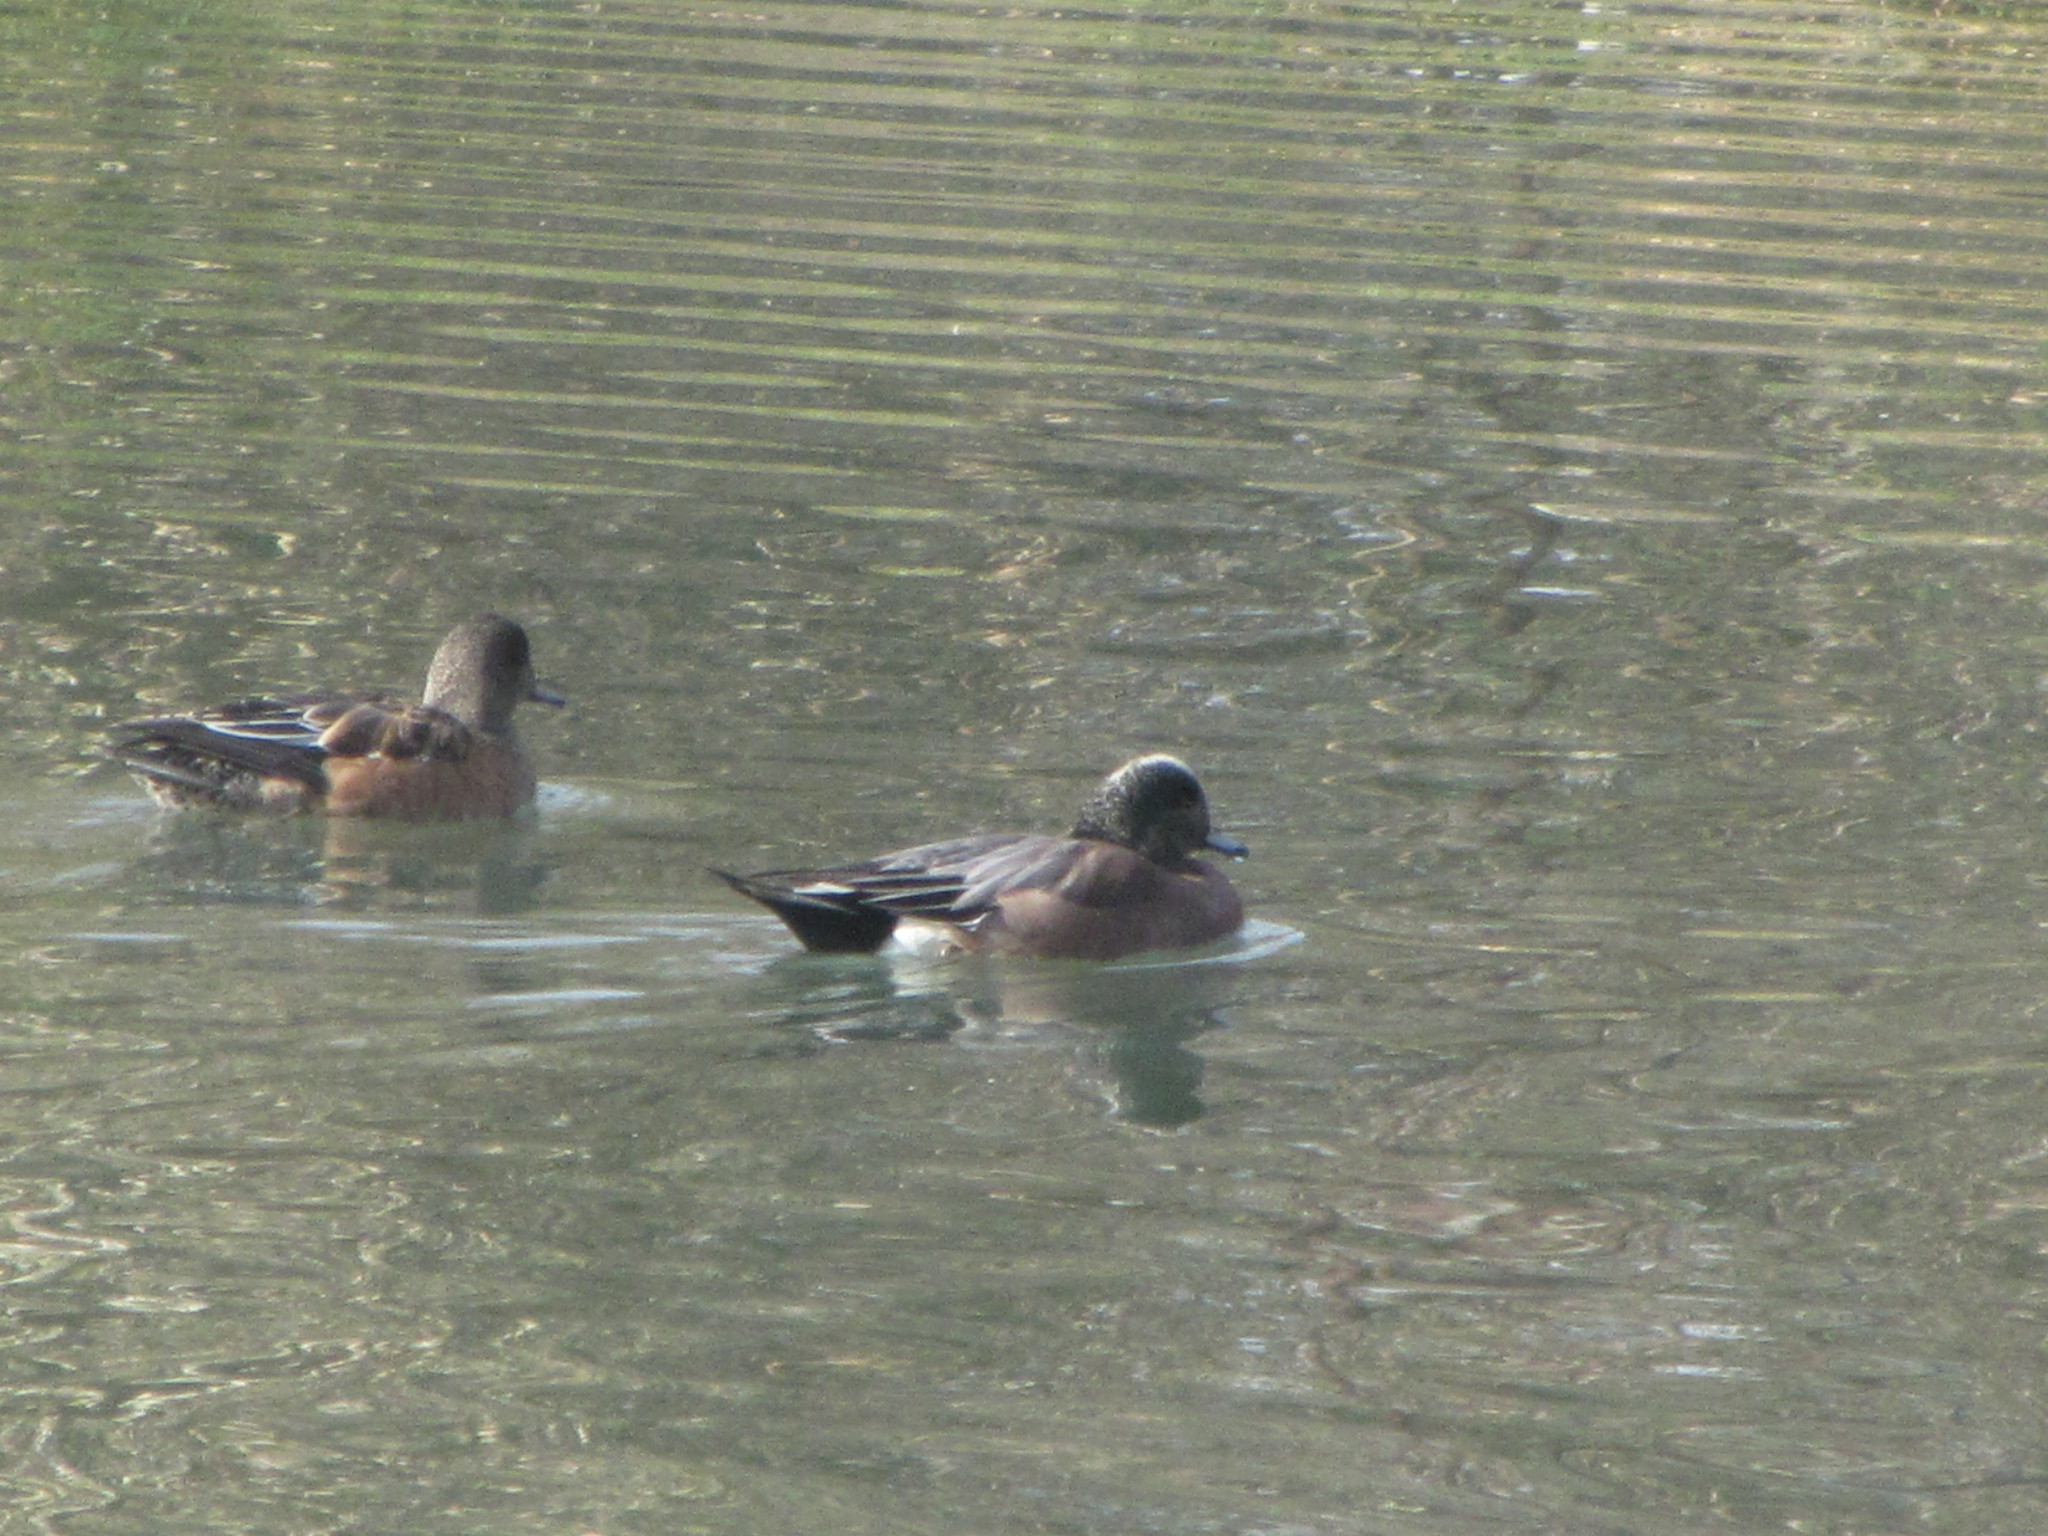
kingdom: Animalia
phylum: Chordata
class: Aves
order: Anseriformes
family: Anatidae
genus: Mareca
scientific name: Mareca americana
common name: American wigeon
